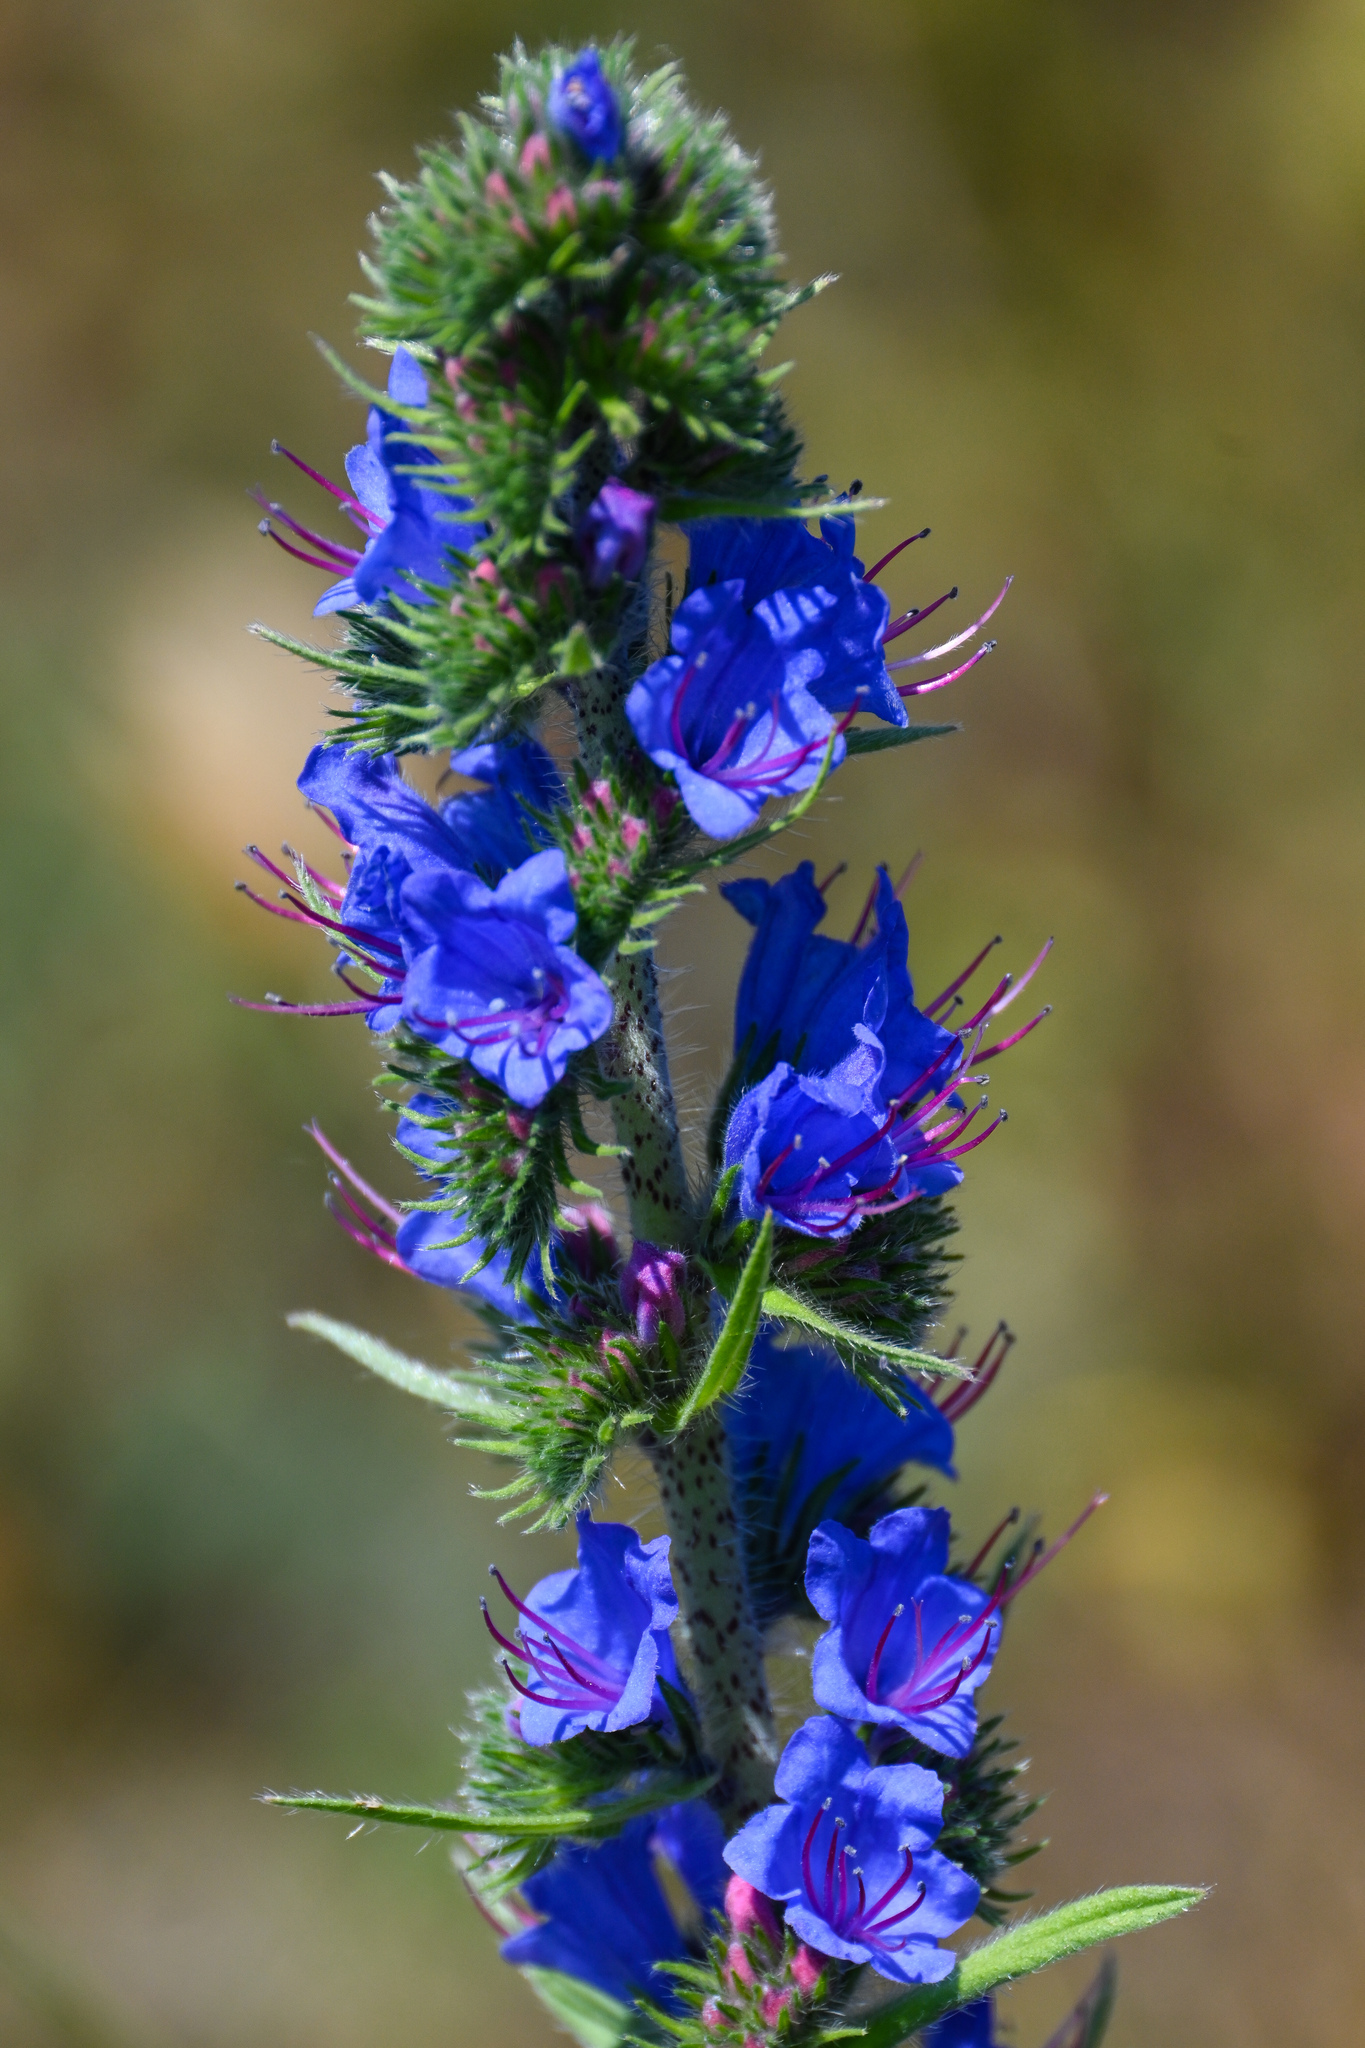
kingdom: Plantae
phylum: Tracheophyta
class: Magnoliopsida
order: Boraginales
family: Boraginaceae
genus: Echium
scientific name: Echium vulgare
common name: Common viper's bugloss
